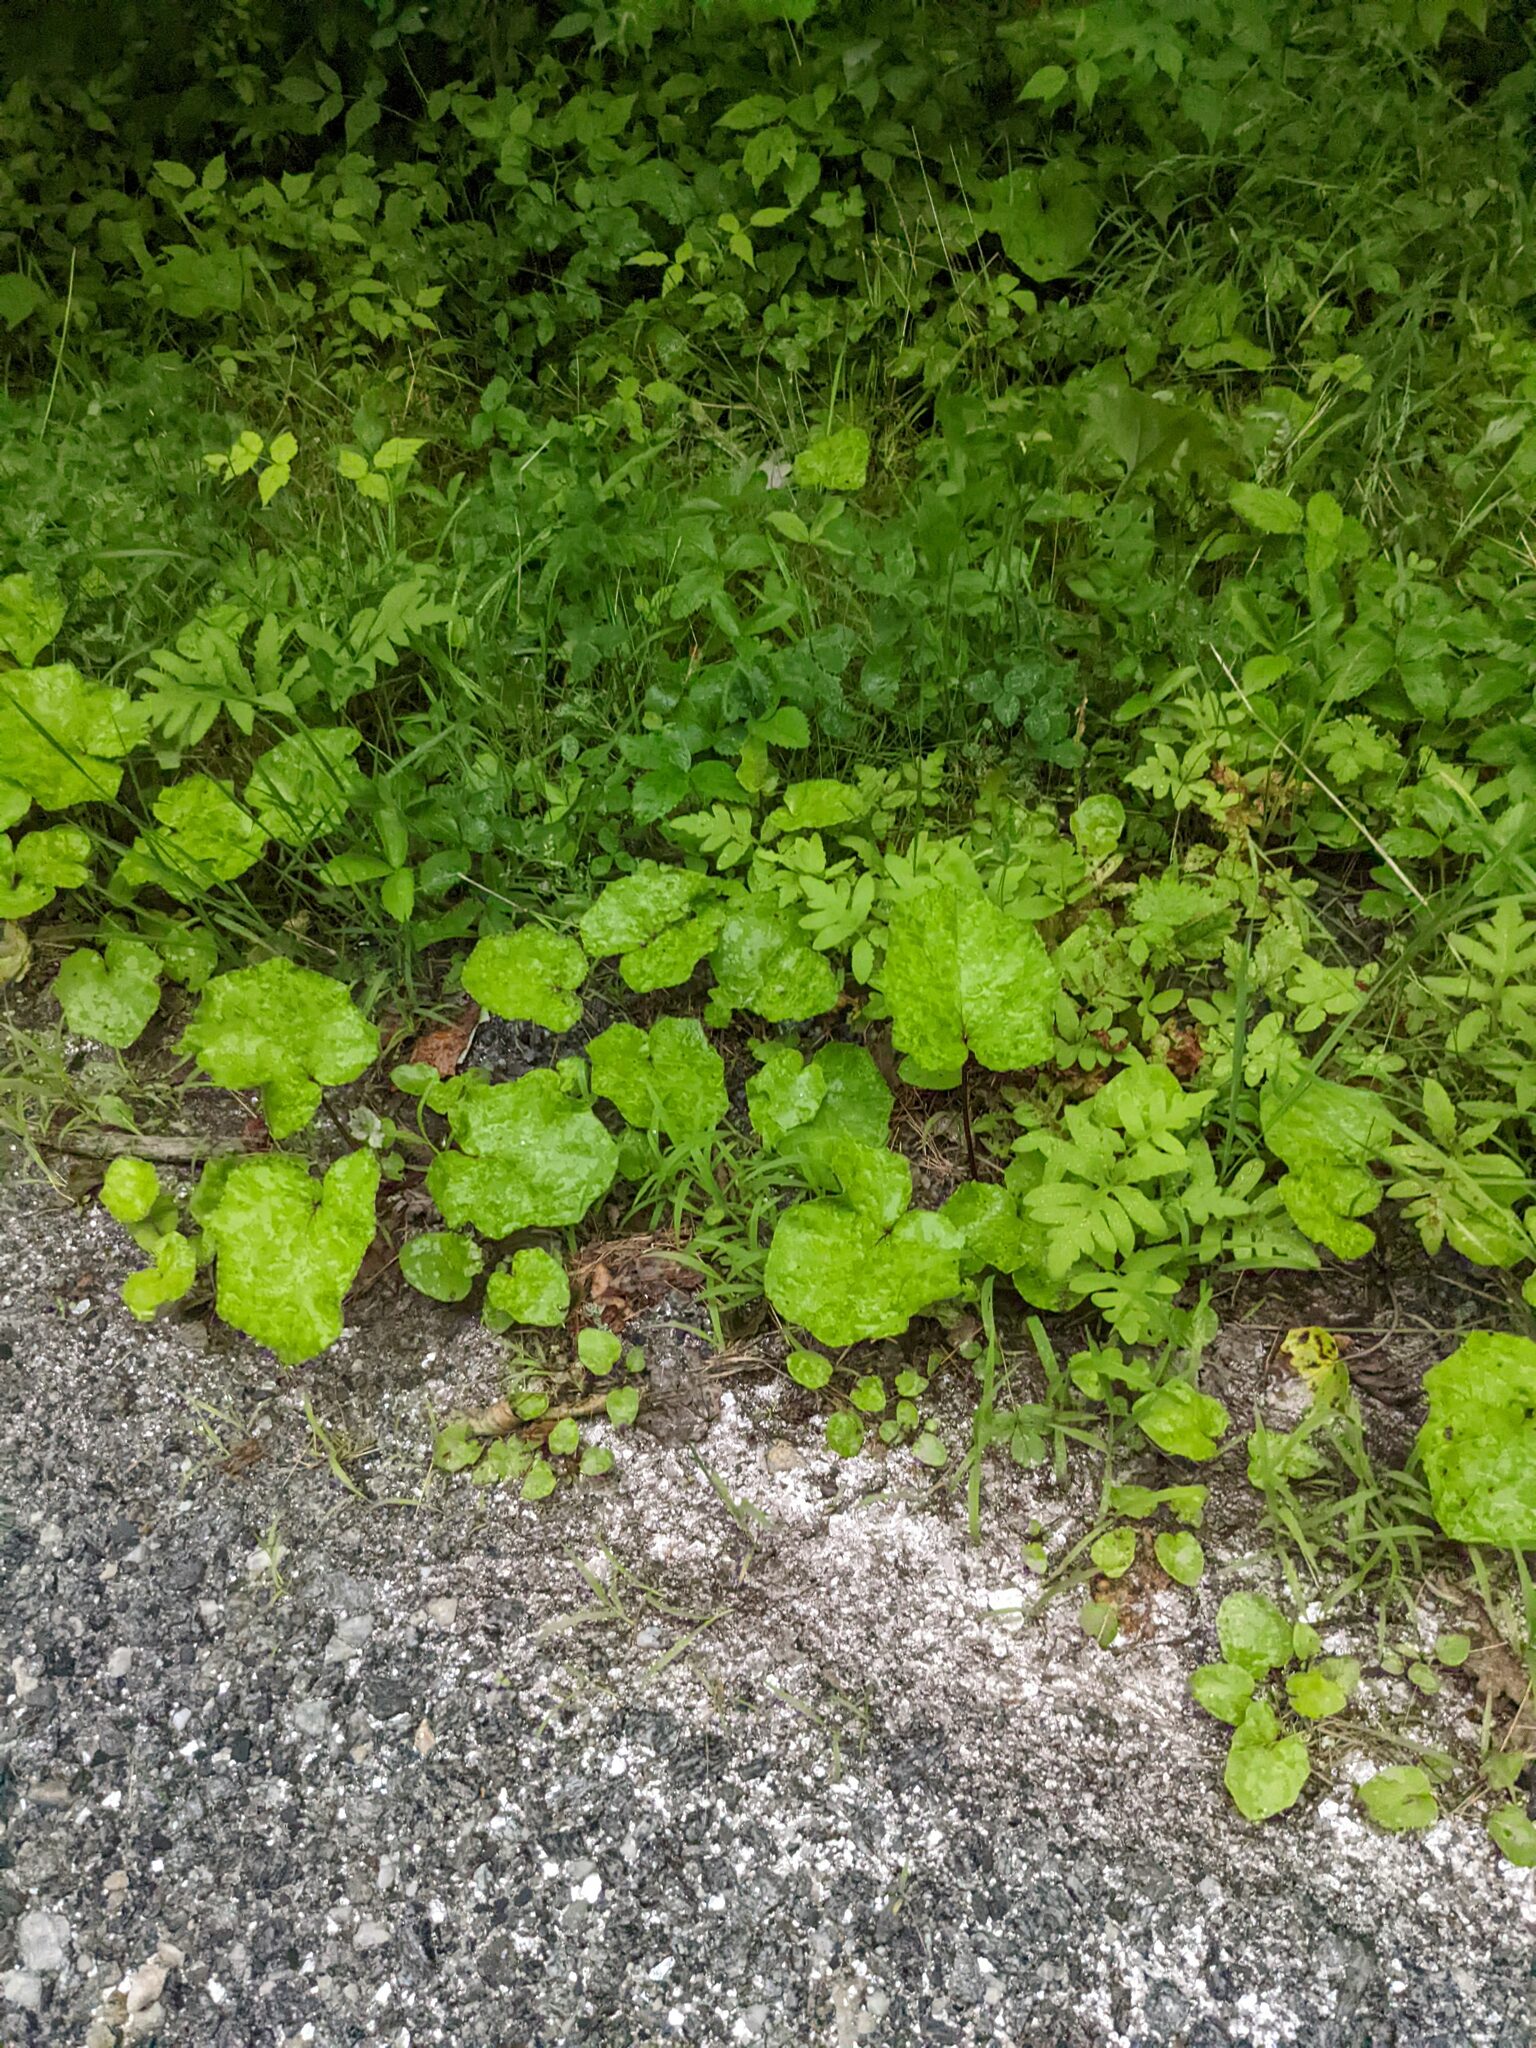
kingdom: Plantae
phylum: Tracheophyta
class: Magnoliopsida
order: Asterales
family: Asteraceae
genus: Tussilago
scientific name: Tussilago farfara
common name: Coltsfoot
